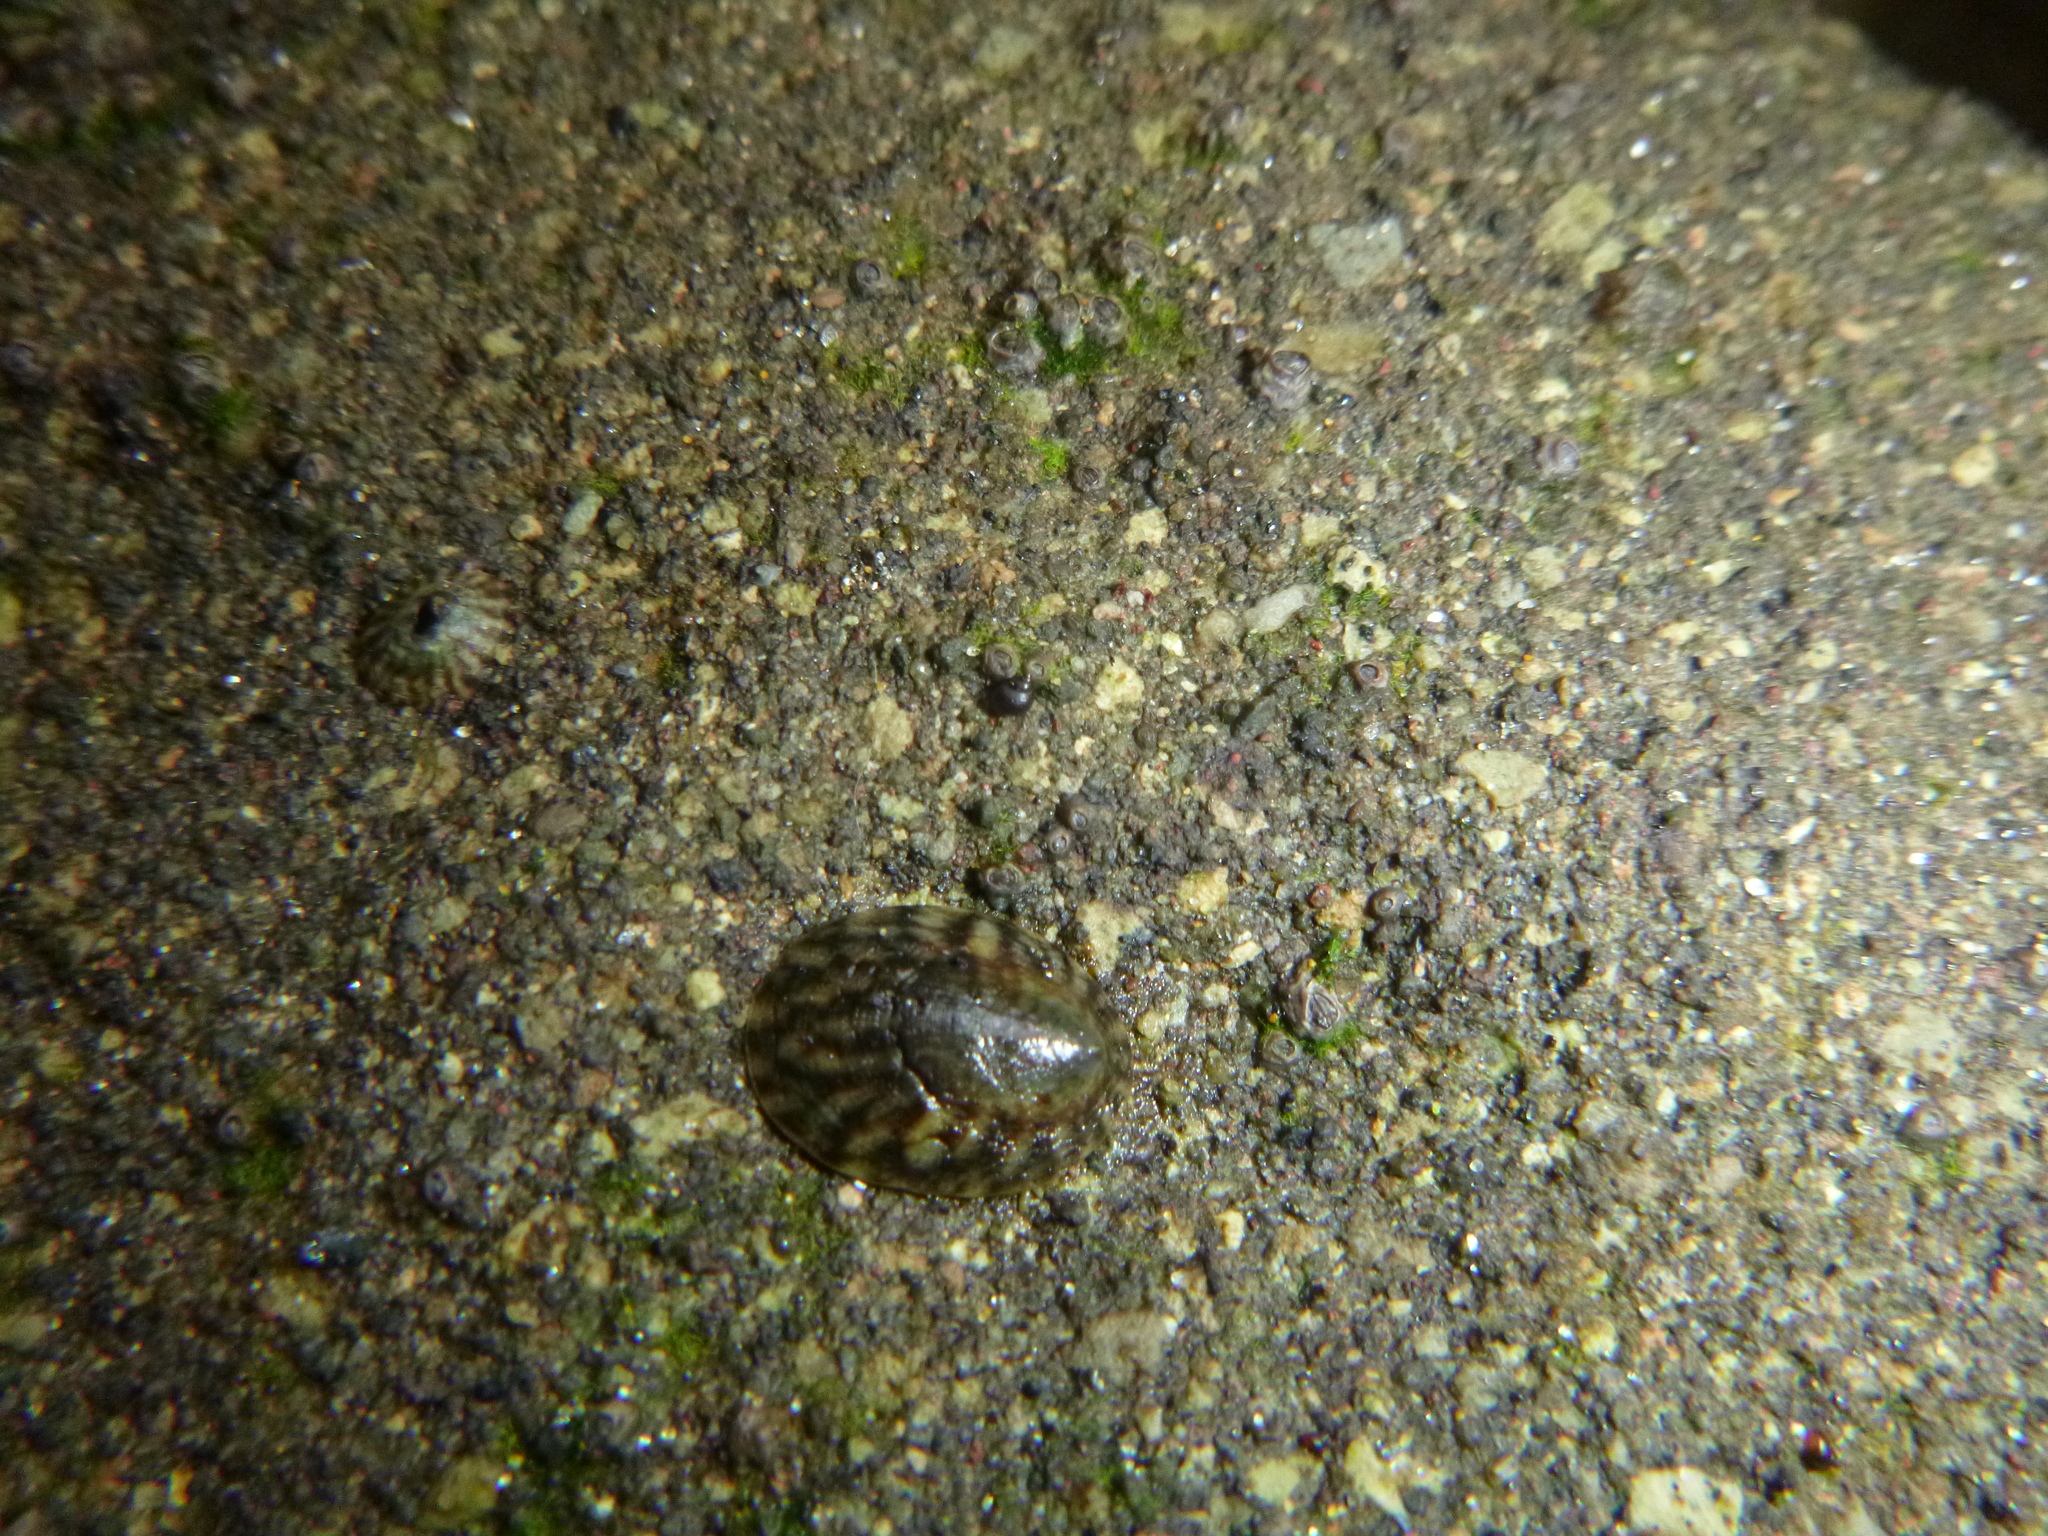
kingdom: Animalia
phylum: Mollusca
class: Gastropoda
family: Lottiidae
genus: Notoacmea
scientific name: Notoacmea pileopsis
